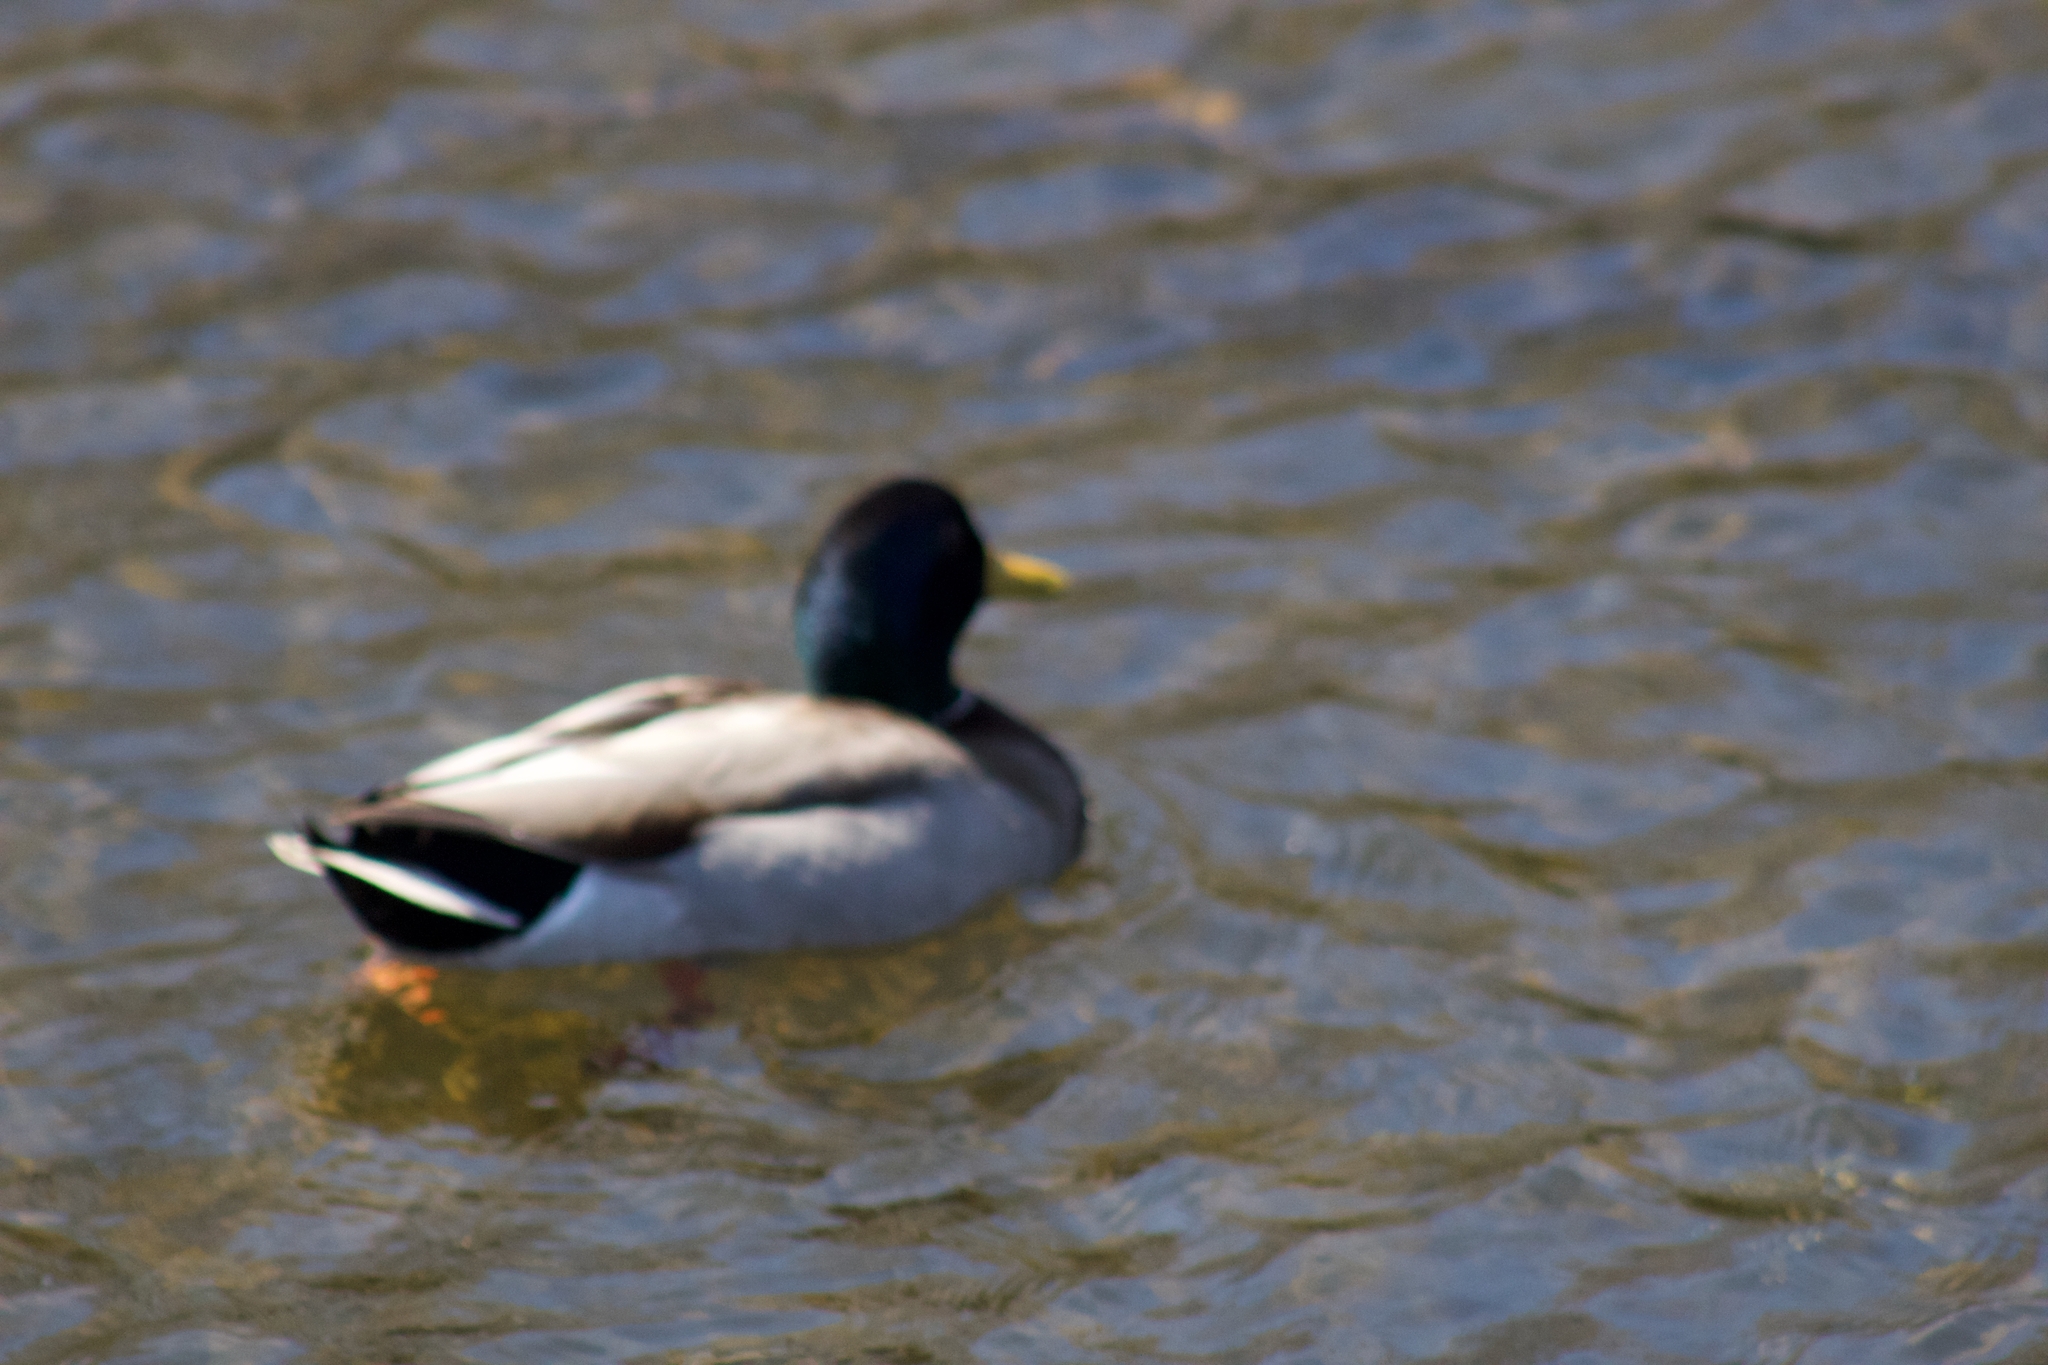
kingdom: Animalia
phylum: Chordata
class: Aves
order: Anseriformes
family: Anatidae
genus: Anas
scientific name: Anas platyrhynchos
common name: Mallard
